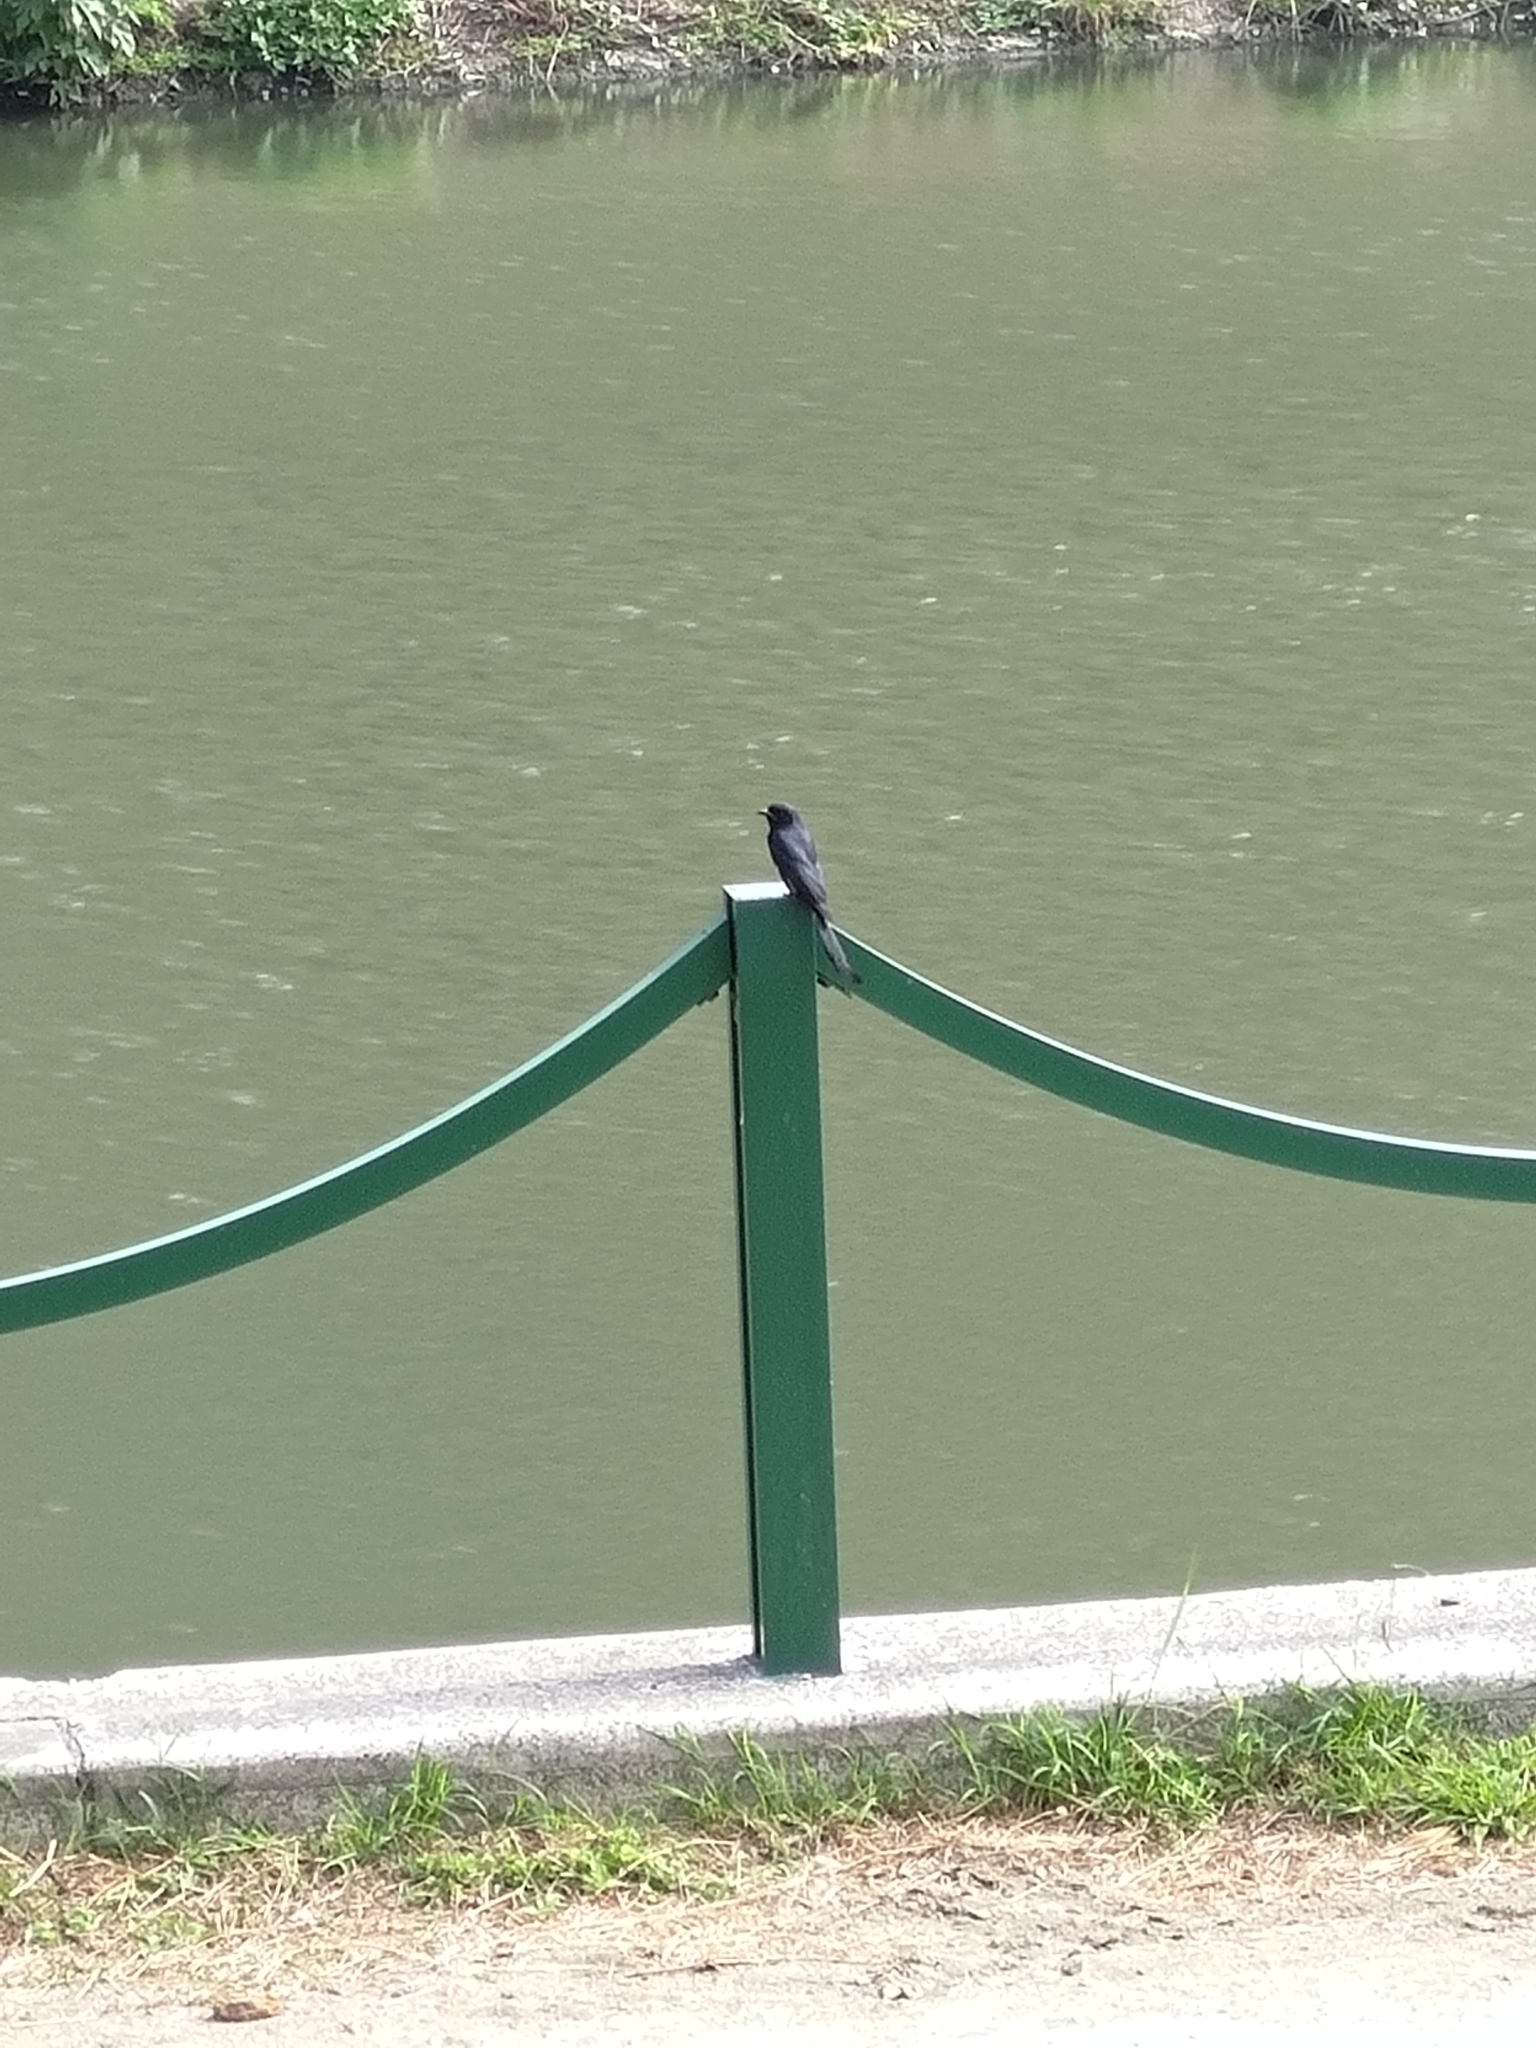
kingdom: Animalia
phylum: Chordata
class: Aves
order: Passeriformes
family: Dicruridae
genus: Dicrurus
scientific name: Dicrurus macrocercus
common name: Black drongo
